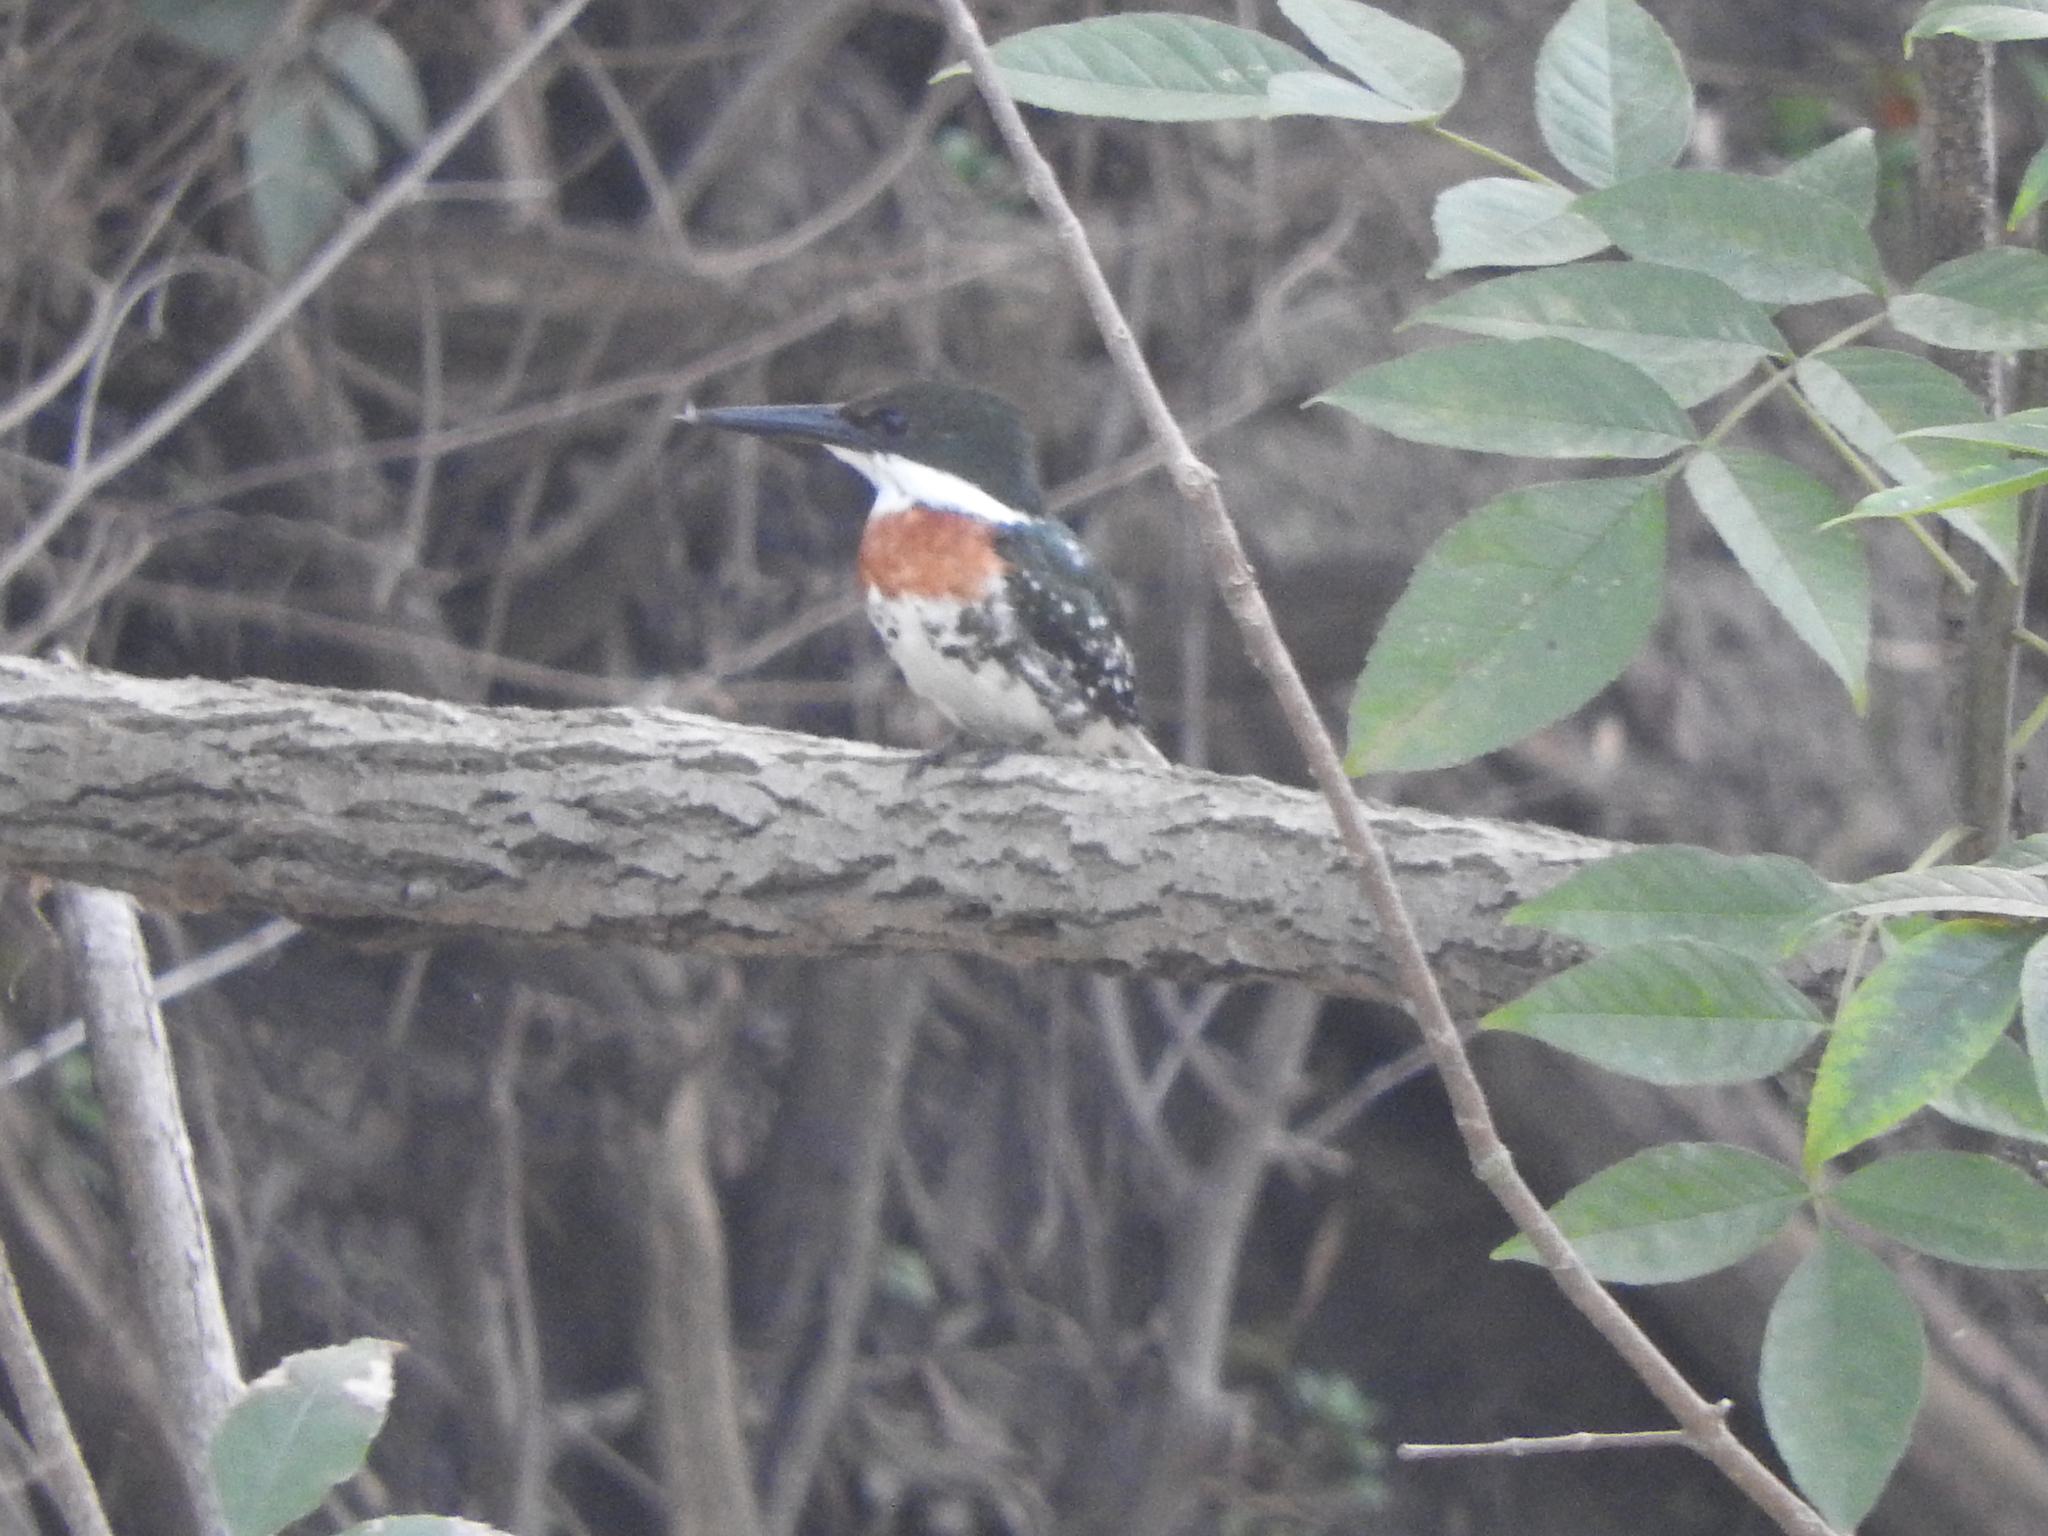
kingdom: Animalia
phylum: Chordata
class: Aves
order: Coraciiformes
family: Alcedinidae
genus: Chloroceryle
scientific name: Chloroceryle americana
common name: Green kingfisher
